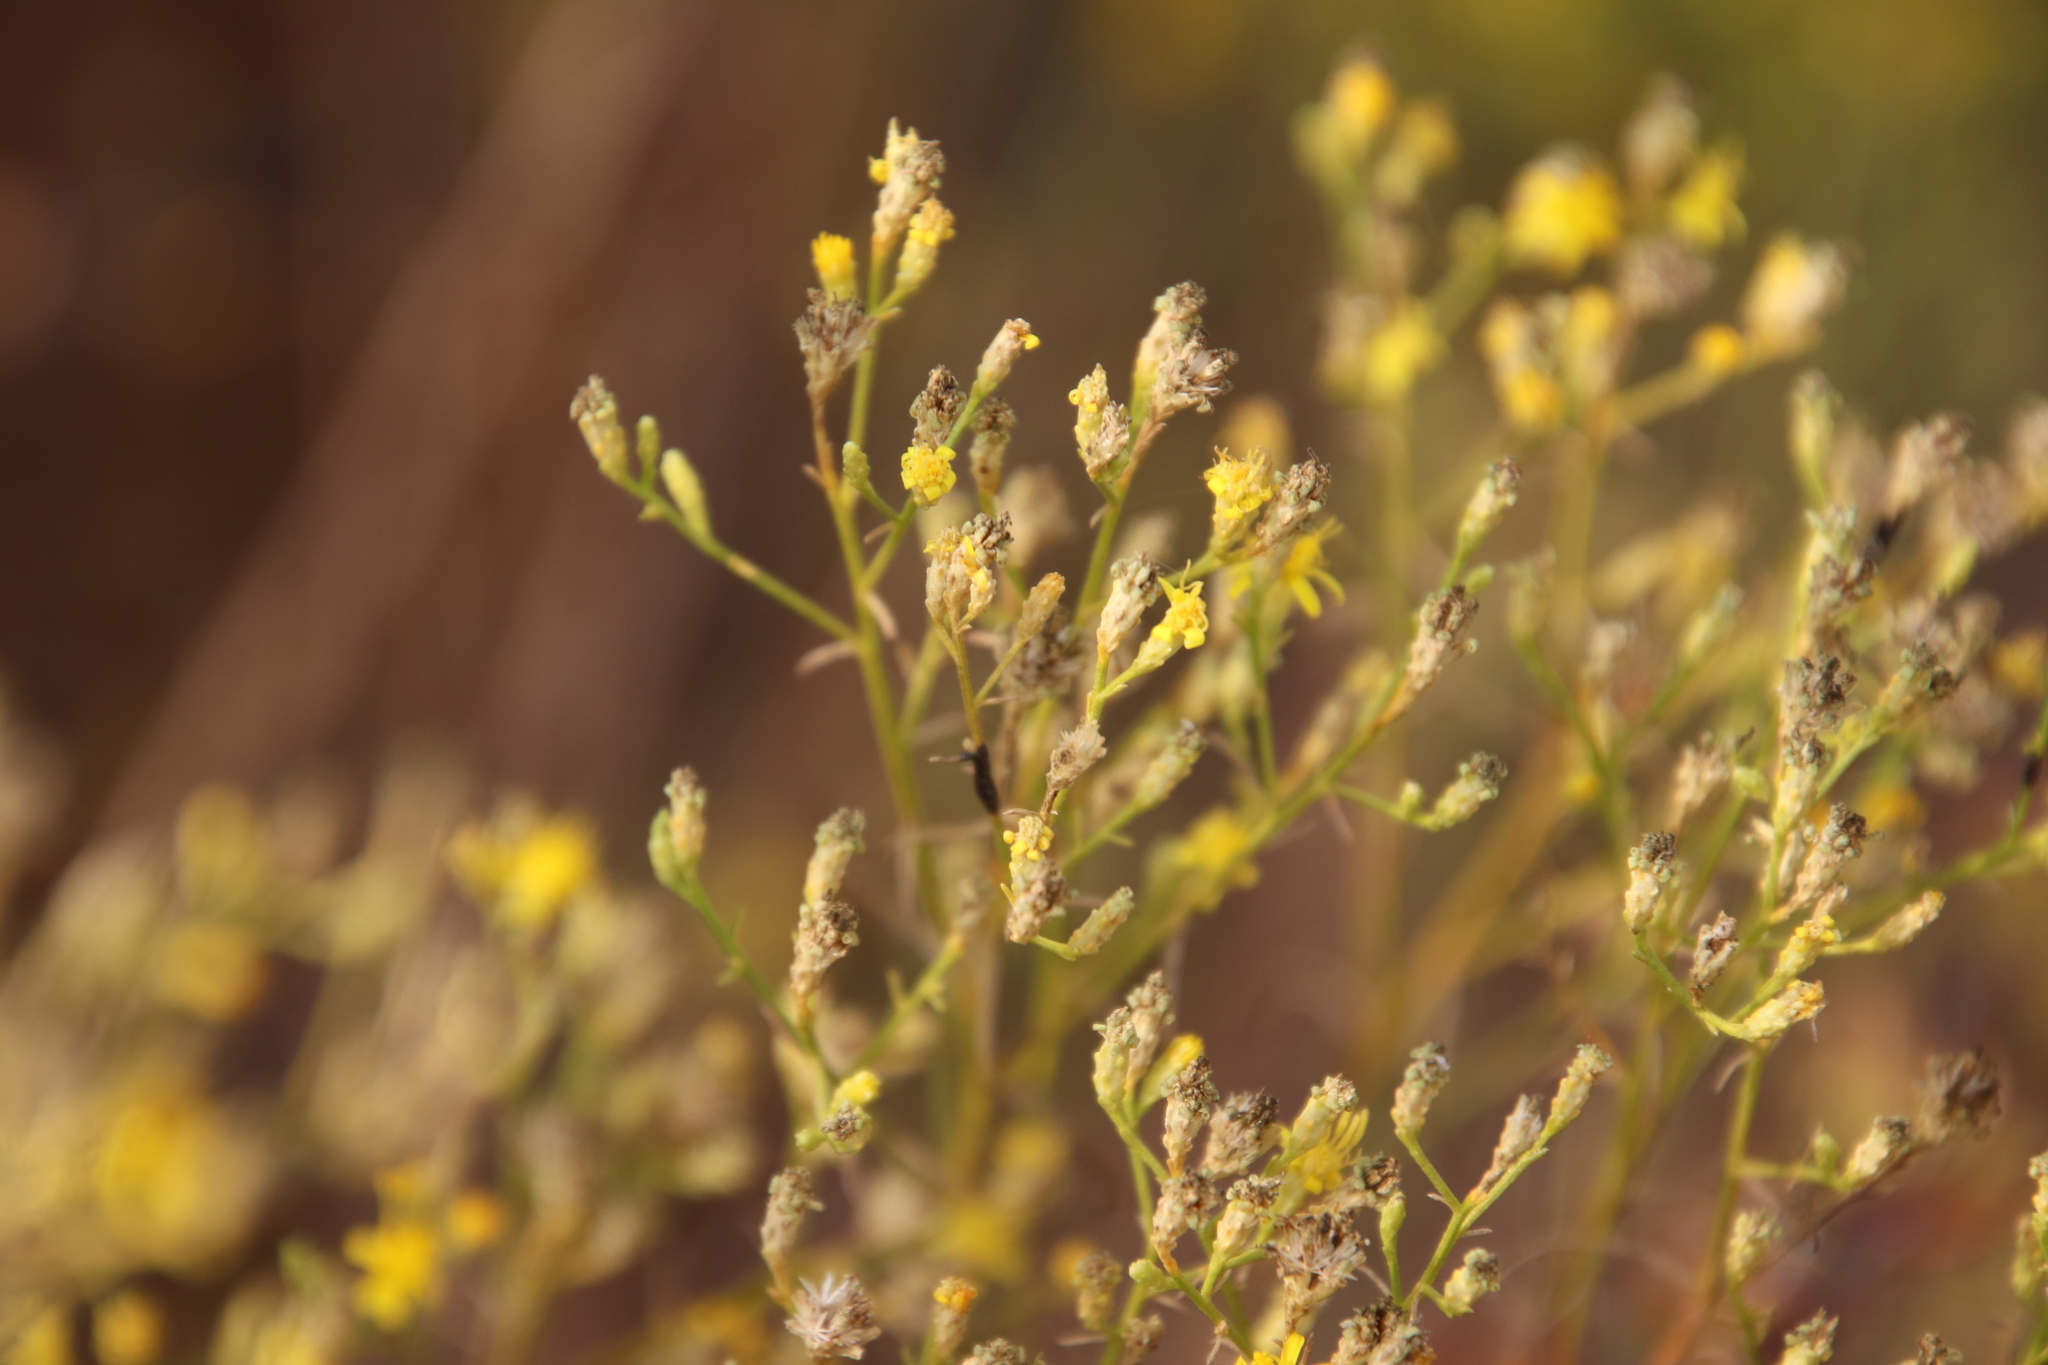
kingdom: Plantae
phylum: Tracheophyta
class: Magnoliopsida
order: Asterales
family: Asteraceae
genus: Gutierrezia
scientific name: Gutierrezia sarothrae
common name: Broom snakeweed
